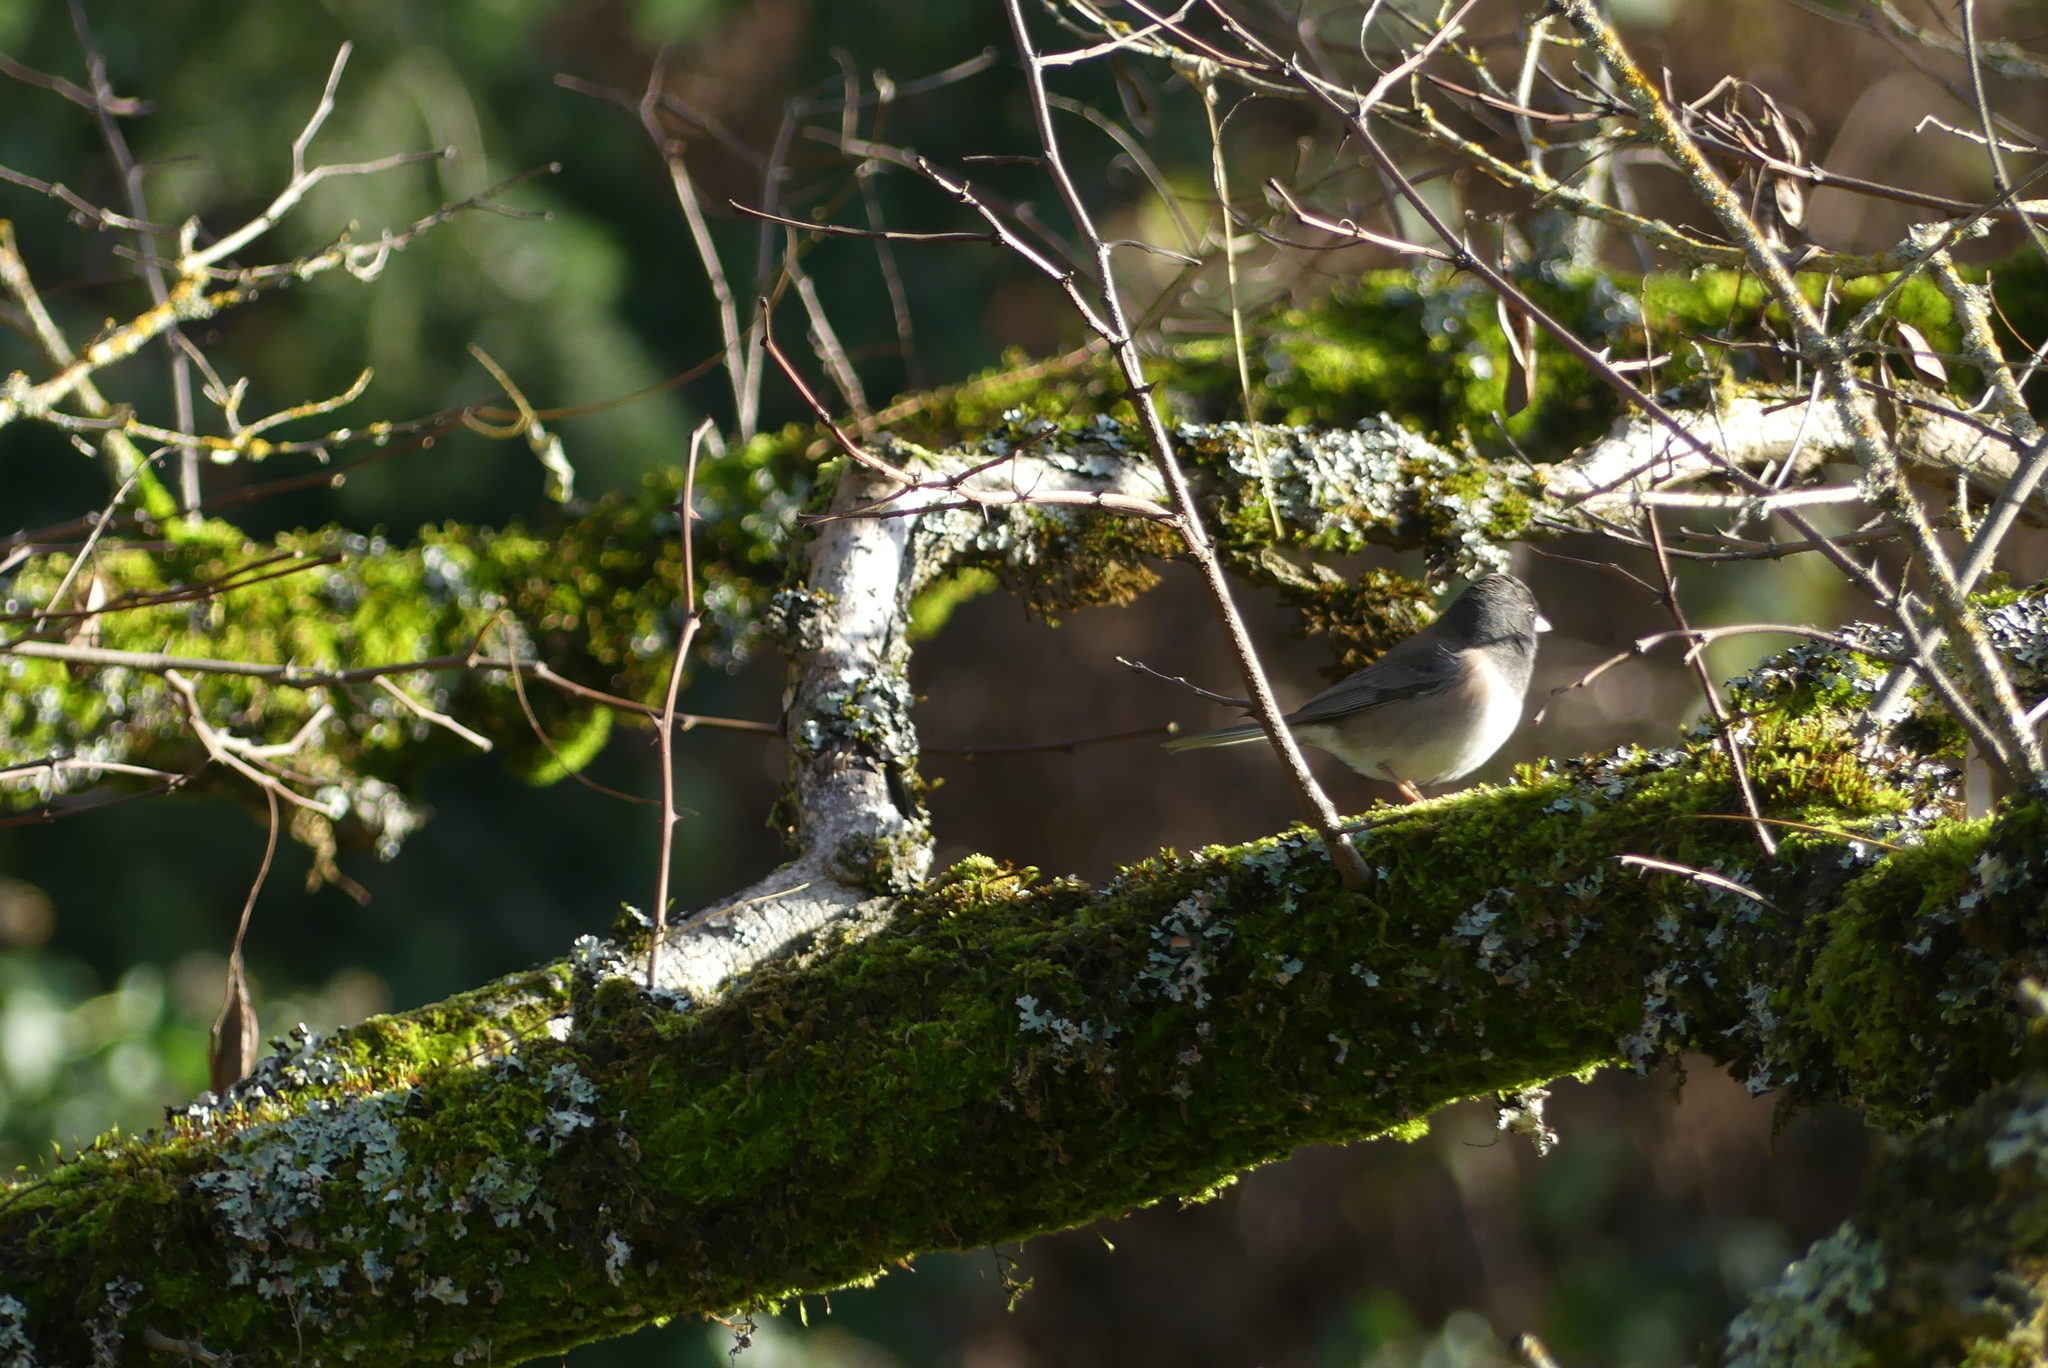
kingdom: Animalia
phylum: Chordata
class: Aves
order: Passeriformes
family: Passerellidae
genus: Junco
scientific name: Junco hyemalis
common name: Dark-eyed junco
